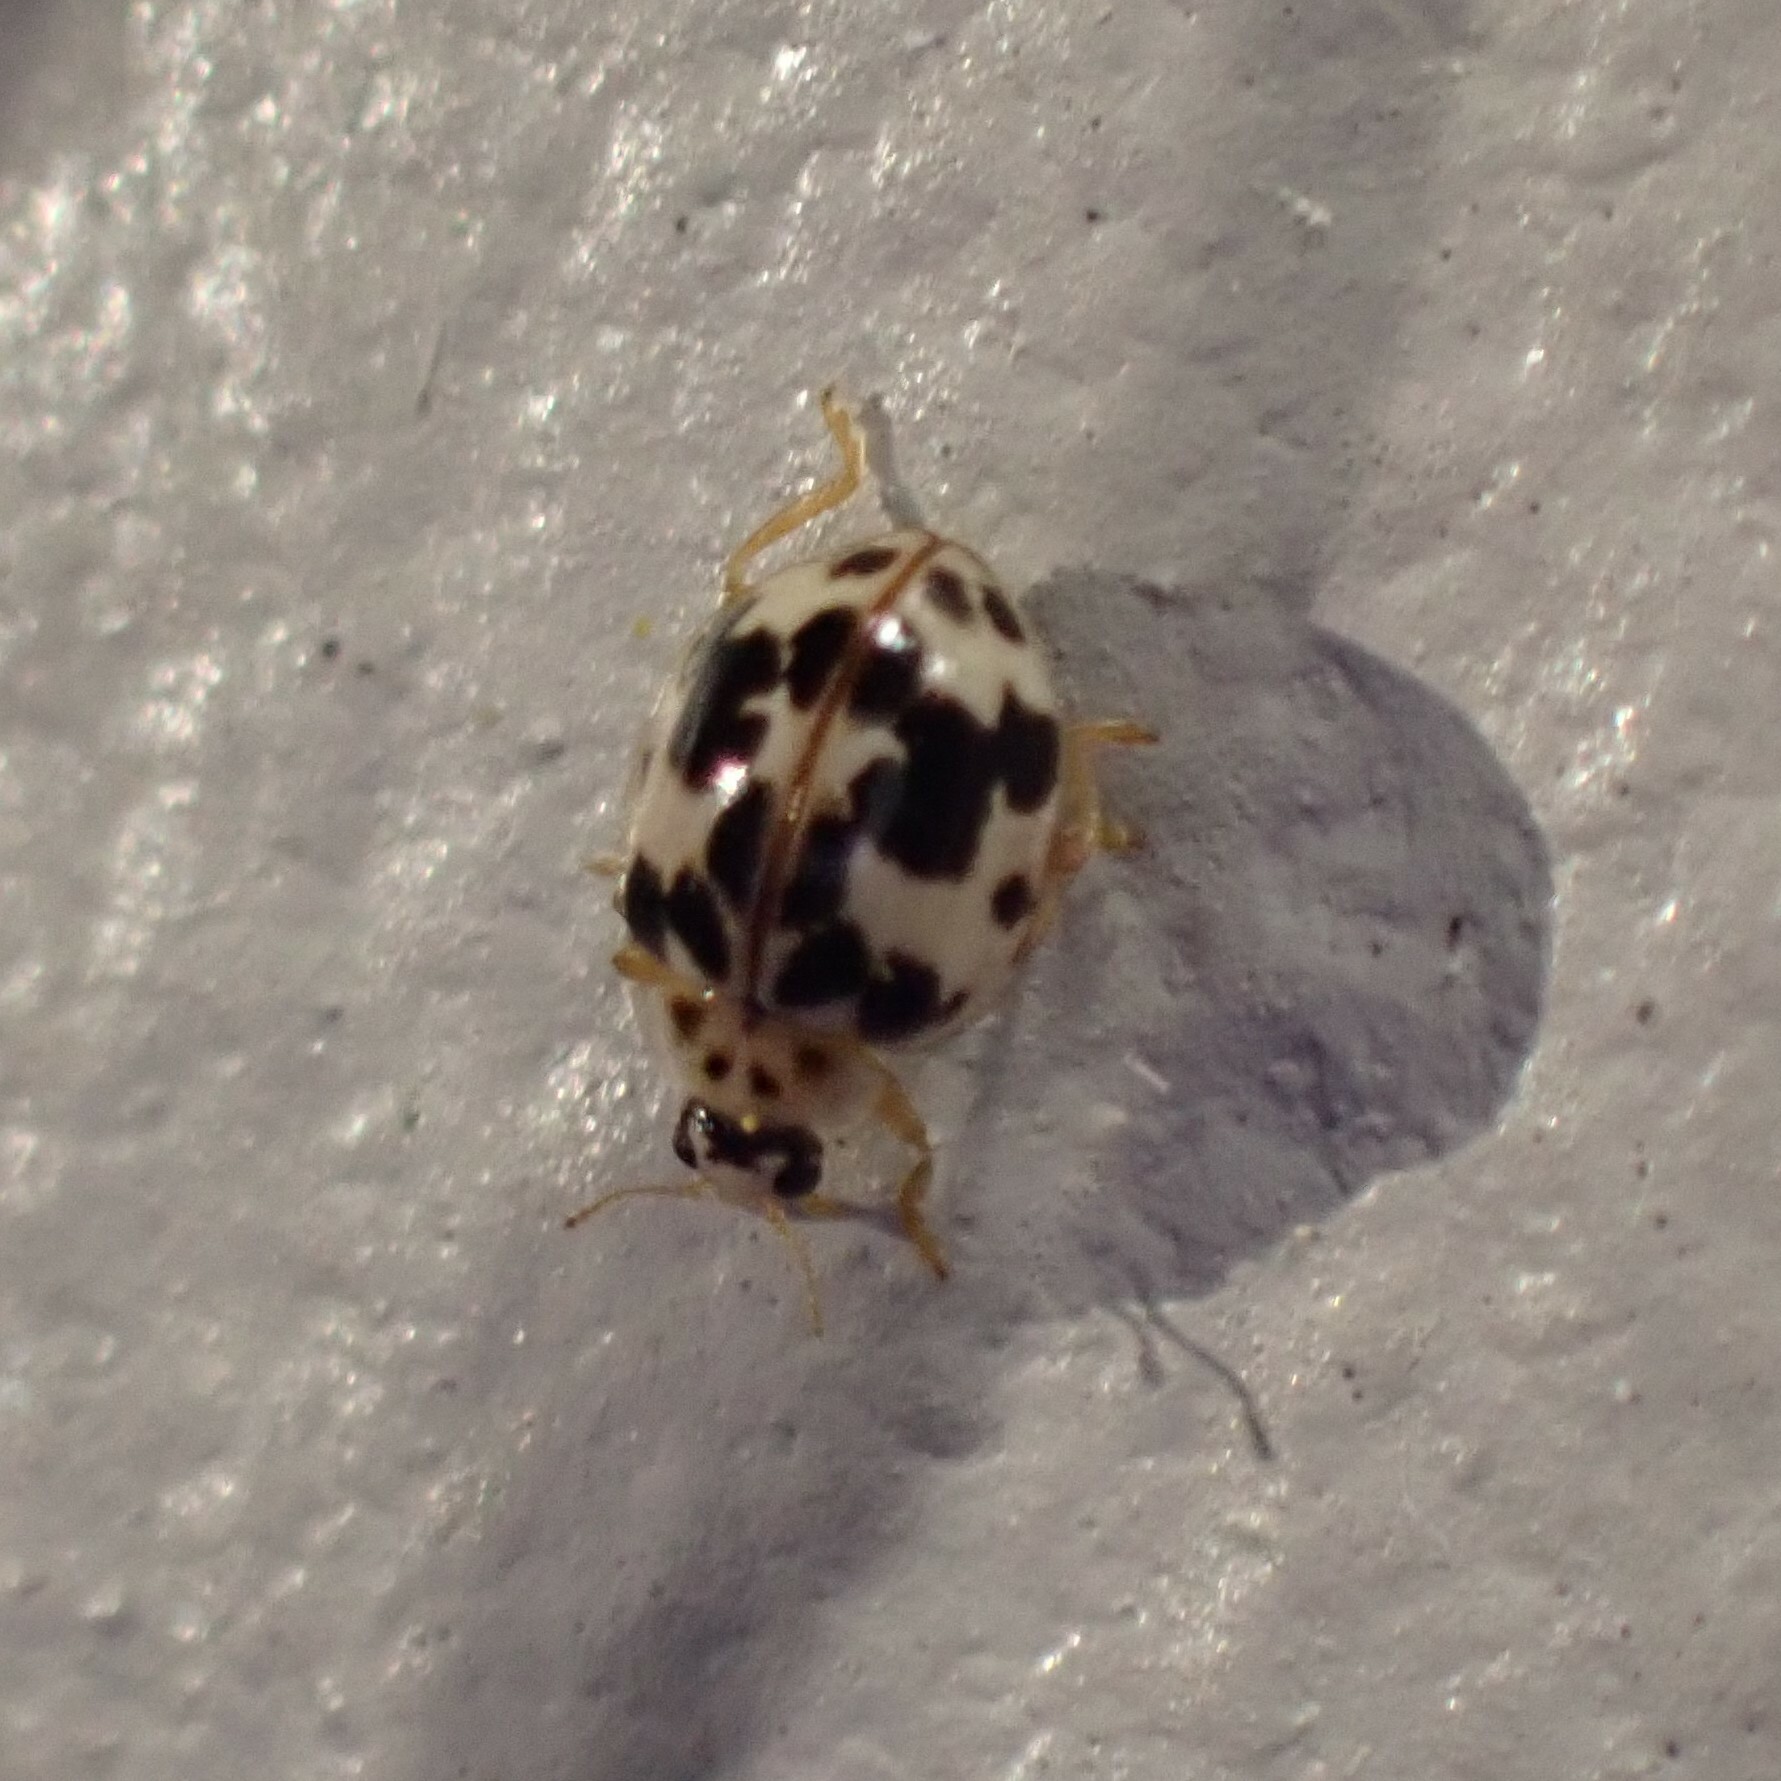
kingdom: Animalia
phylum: Arthropoda
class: Insecta
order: Coleoptera
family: Coccinellidae
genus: Psyllobora
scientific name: Psyllobora borealis
